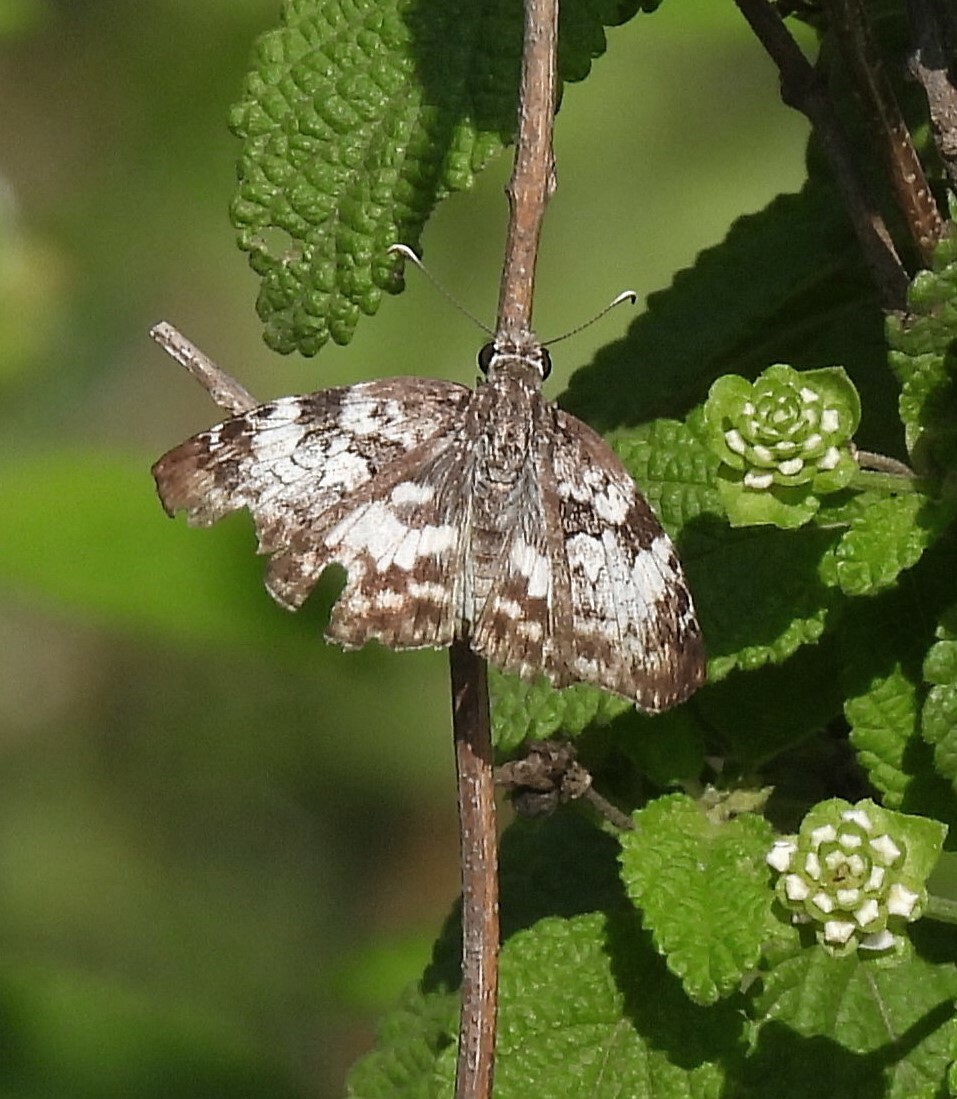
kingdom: Animalia
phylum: Arthropoda
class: Insecta
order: Lepidoptera
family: Hesperiidae
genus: Chiomara
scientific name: Chiomara asychis
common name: White-patterned skipper
